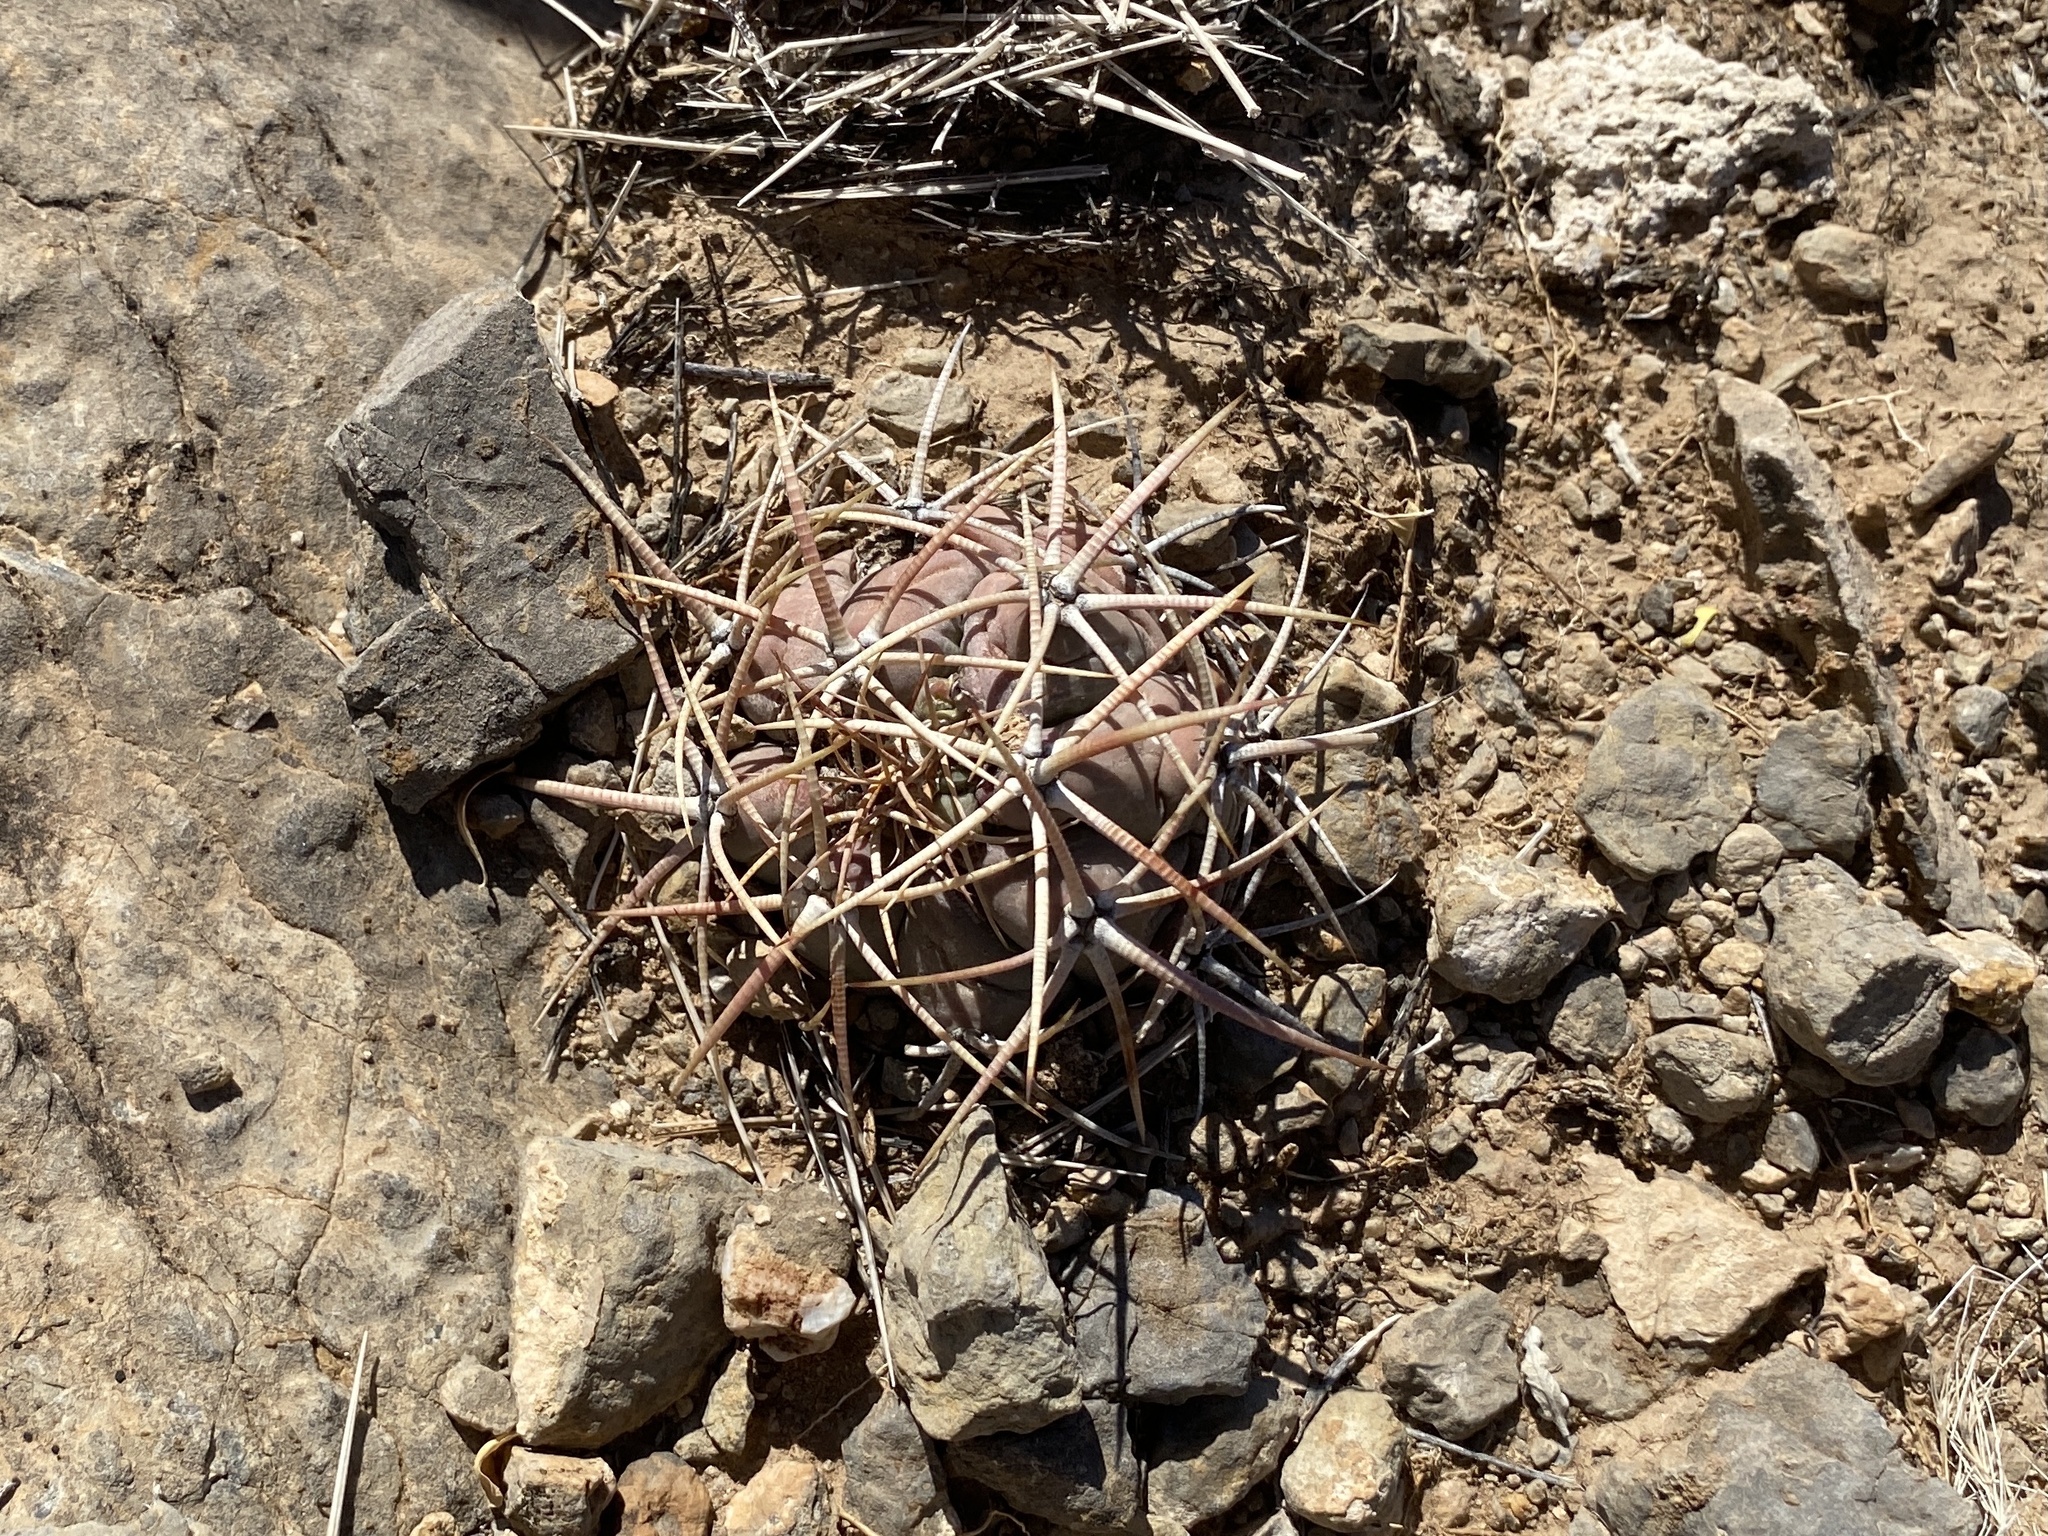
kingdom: Plantae
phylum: Tracheophyta
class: Magnoliopsida
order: Caryophyllales
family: Cactaceae
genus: Echinocactus
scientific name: Echinocactus horizonthalonius
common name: Devilshead
